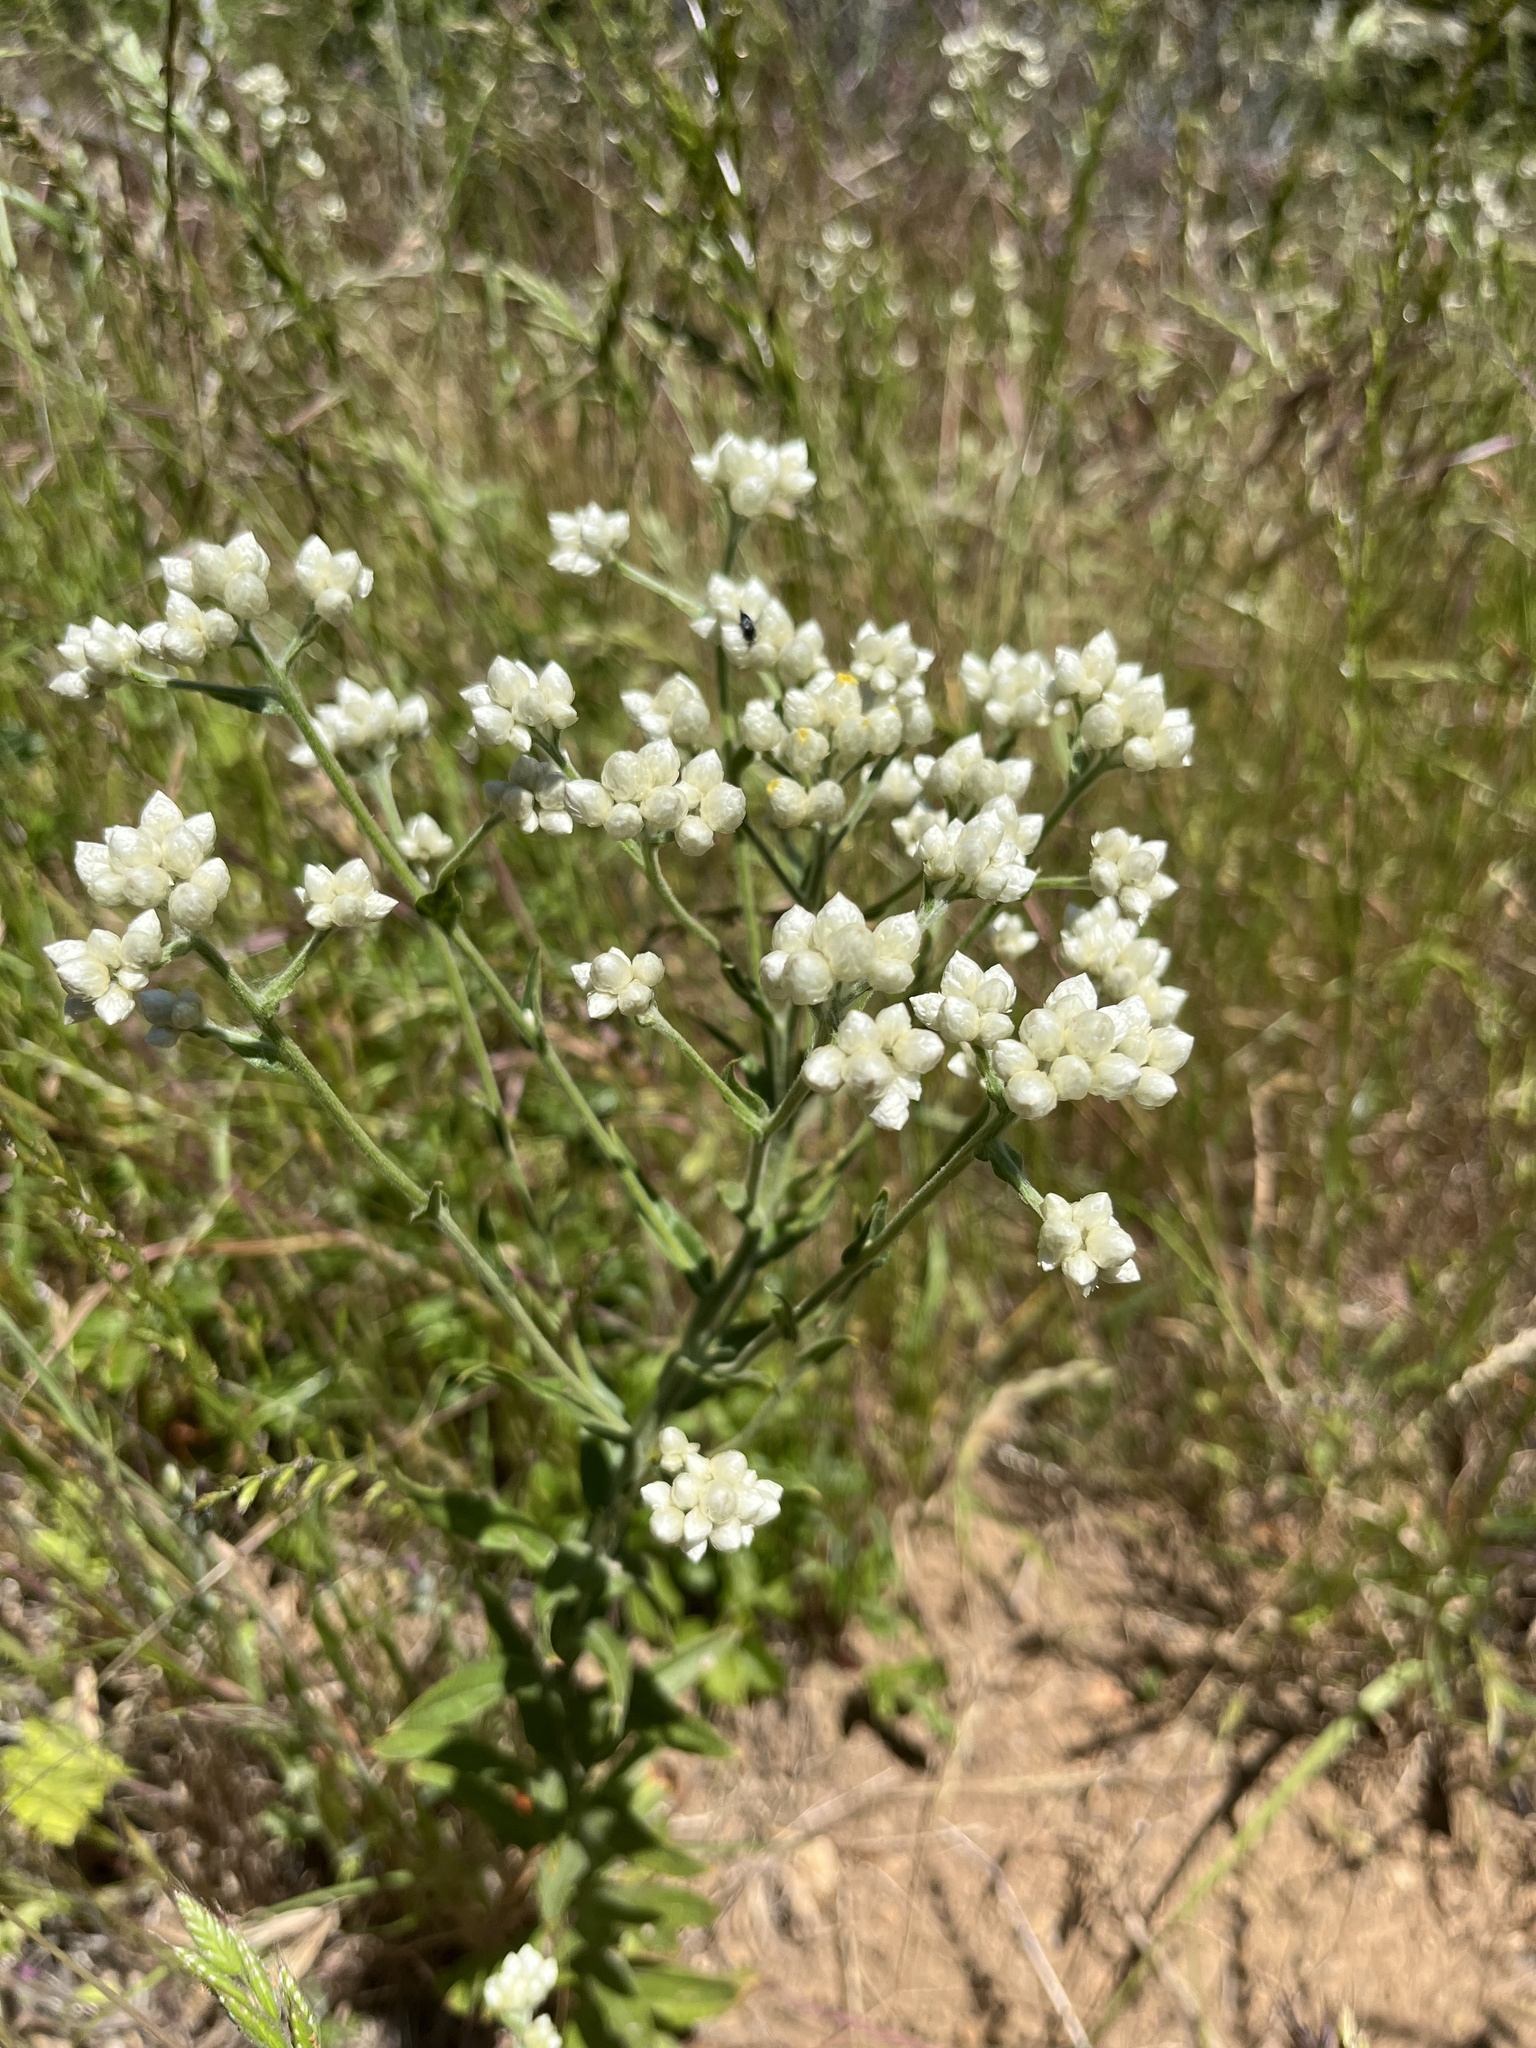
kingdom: Plantae
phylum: Tracheophyta
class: Magnoliopsida
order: Asterales
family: Asteraceae
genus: Pseudognaphalium
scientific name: Pseudognaphalium californicum
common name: California rabbit-tobacco
